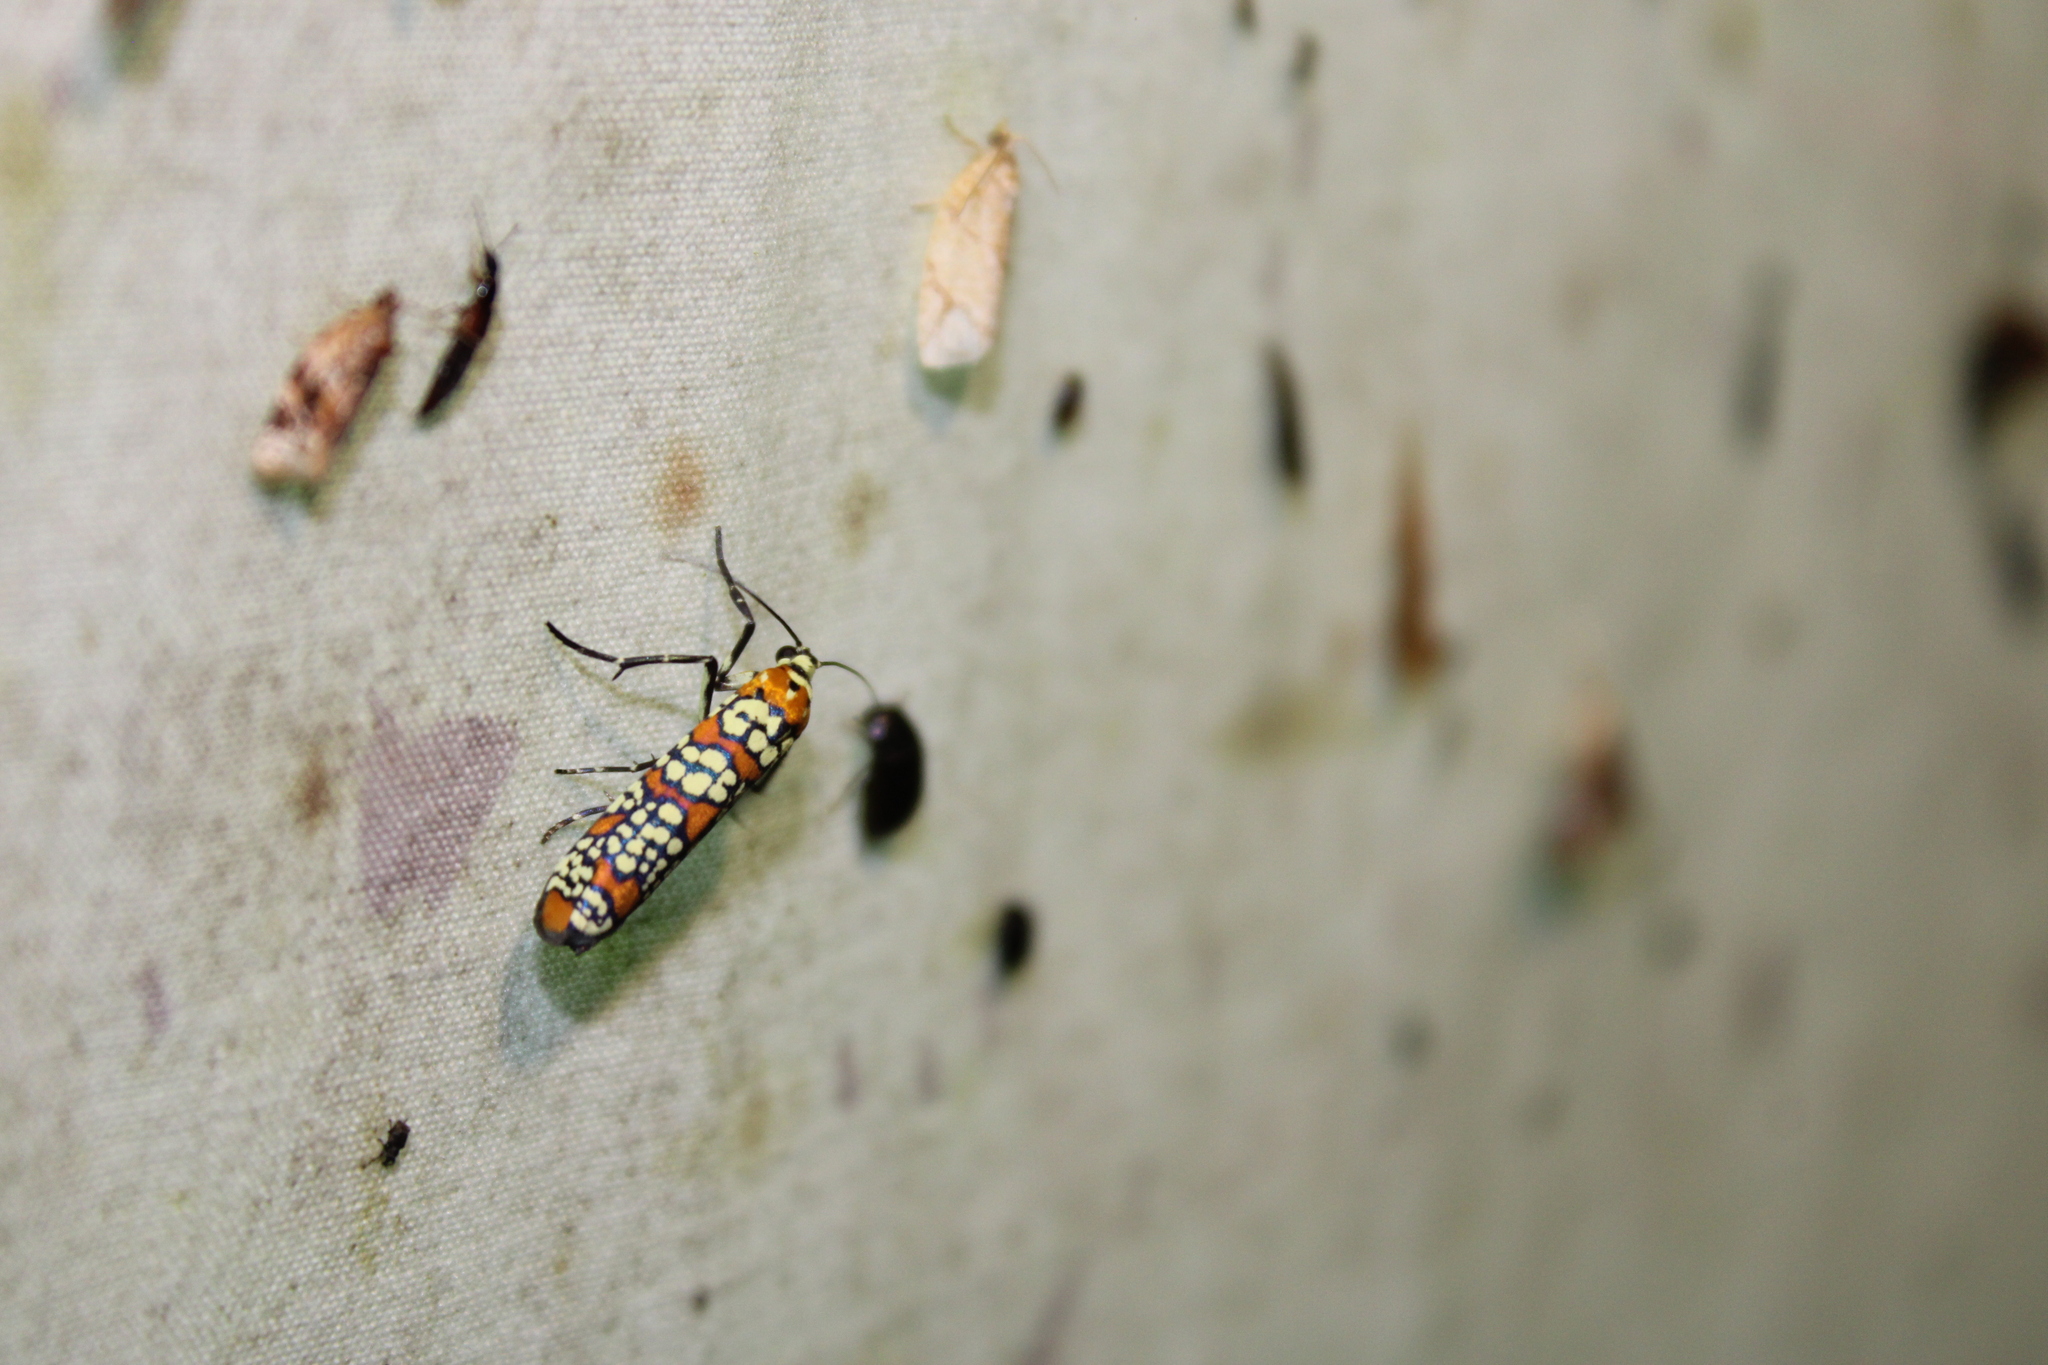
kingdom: Animalia
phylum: Arthropoda
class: Insecta
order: Lepidoptera
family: Attevidae
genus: Atteva
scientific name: Atteva punctella
